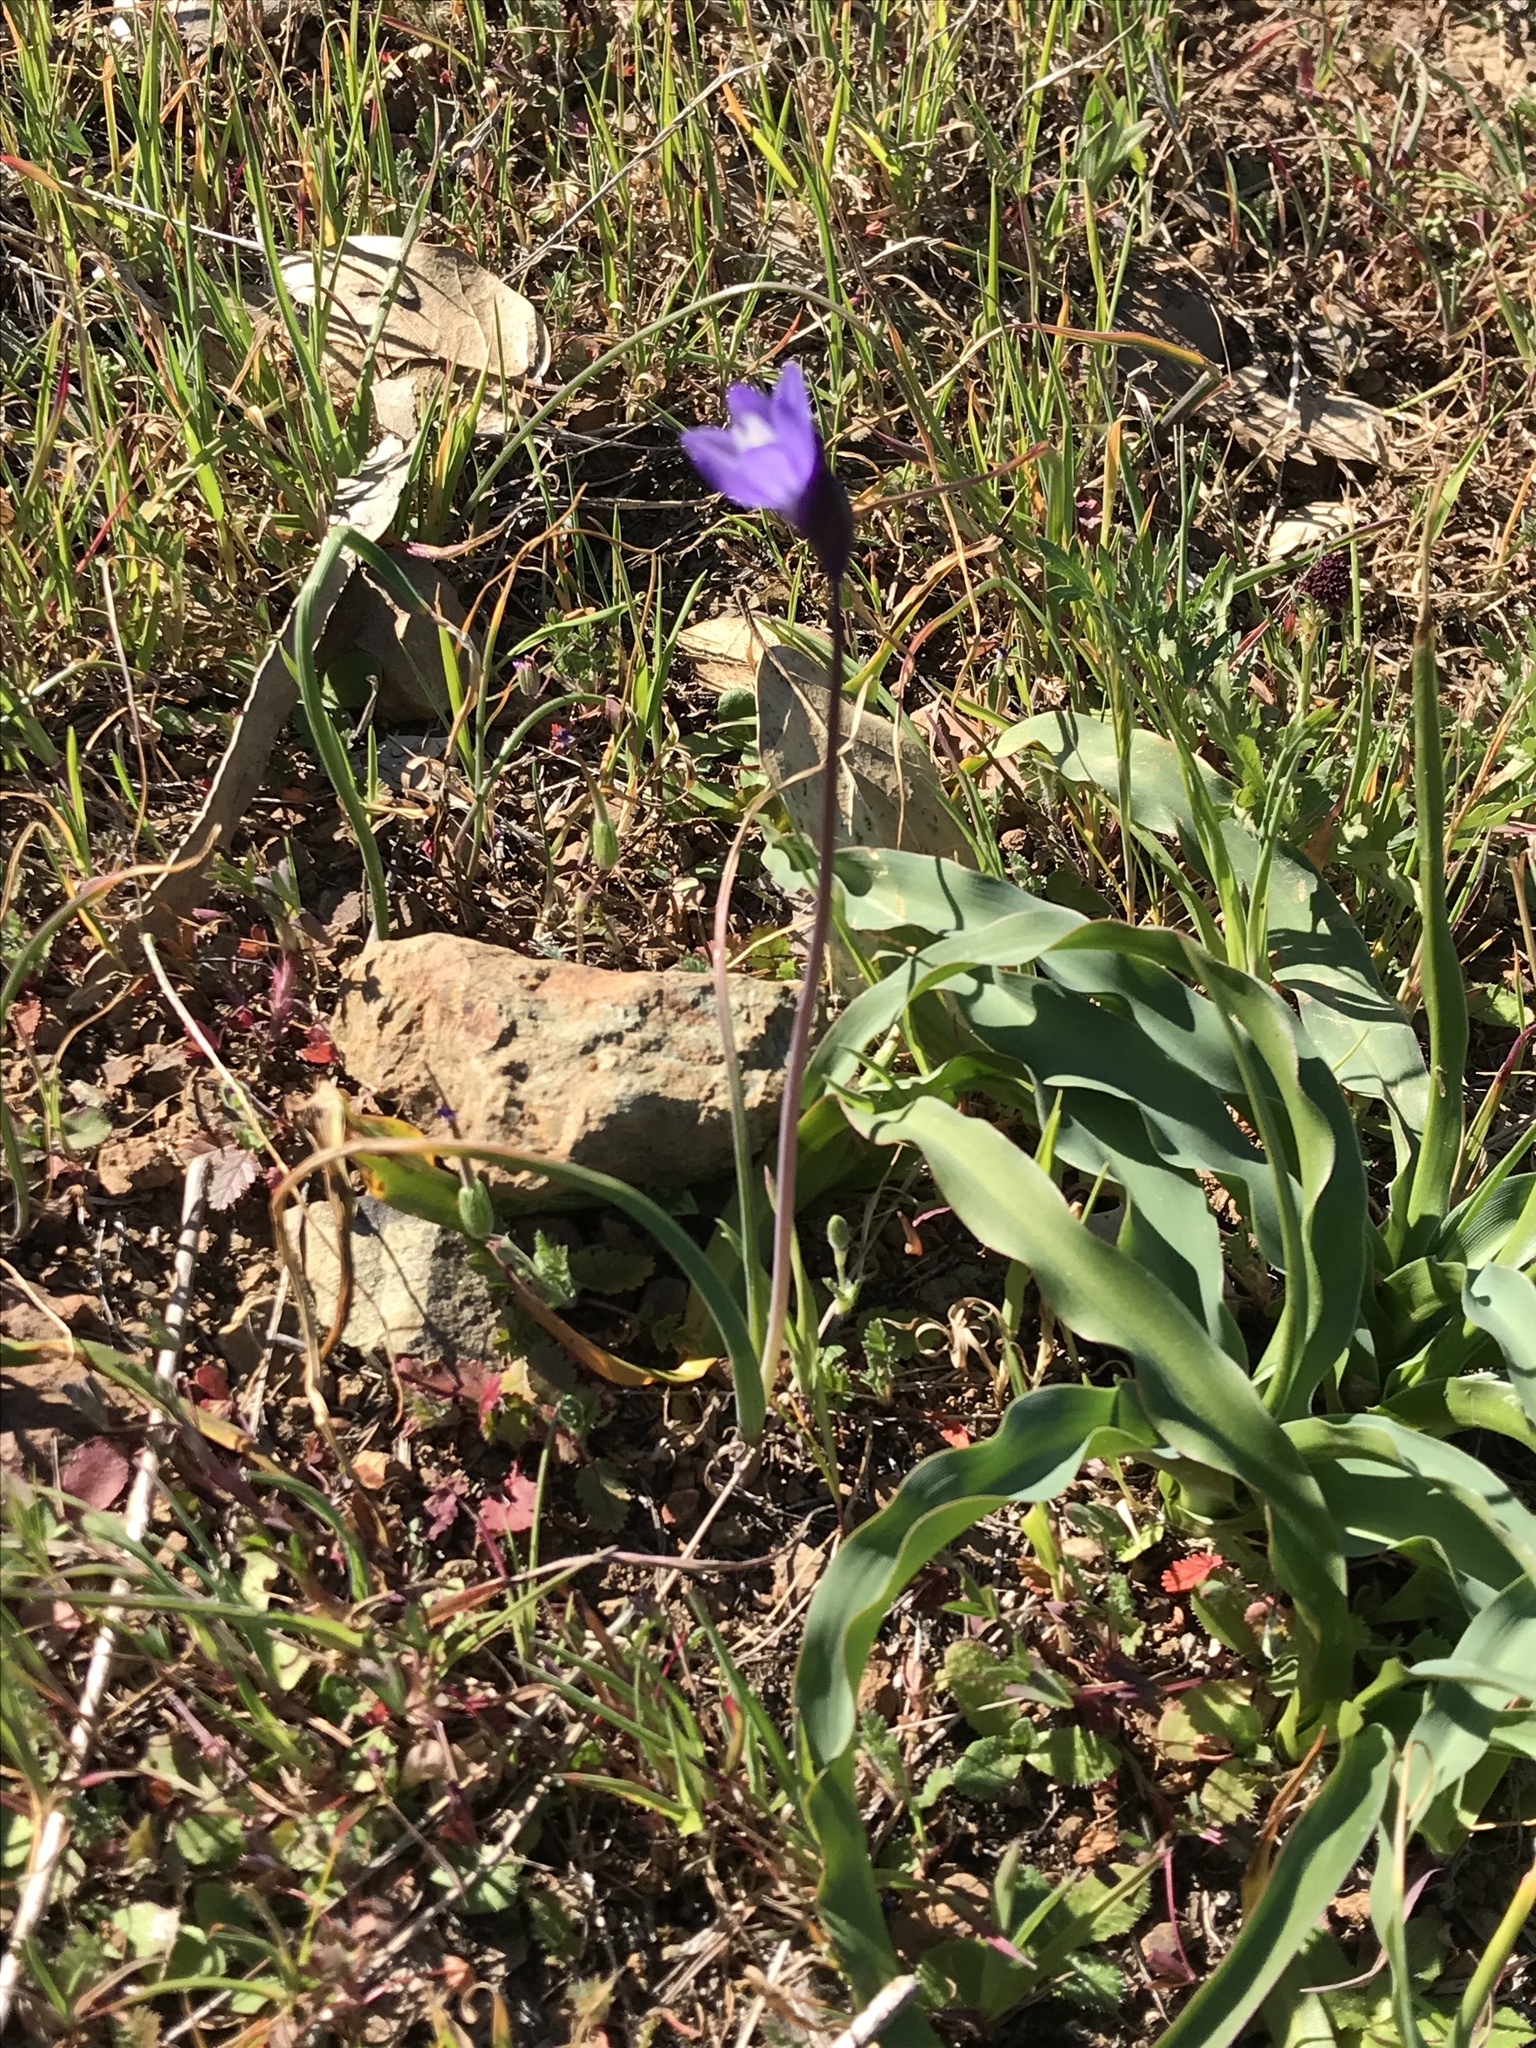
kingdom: Plantae
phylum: Tracheophyta
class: Liliopsida
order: Asparagales
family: Asparagaceae
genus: Dipterostemon
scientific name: Dipterostemon capitatus
